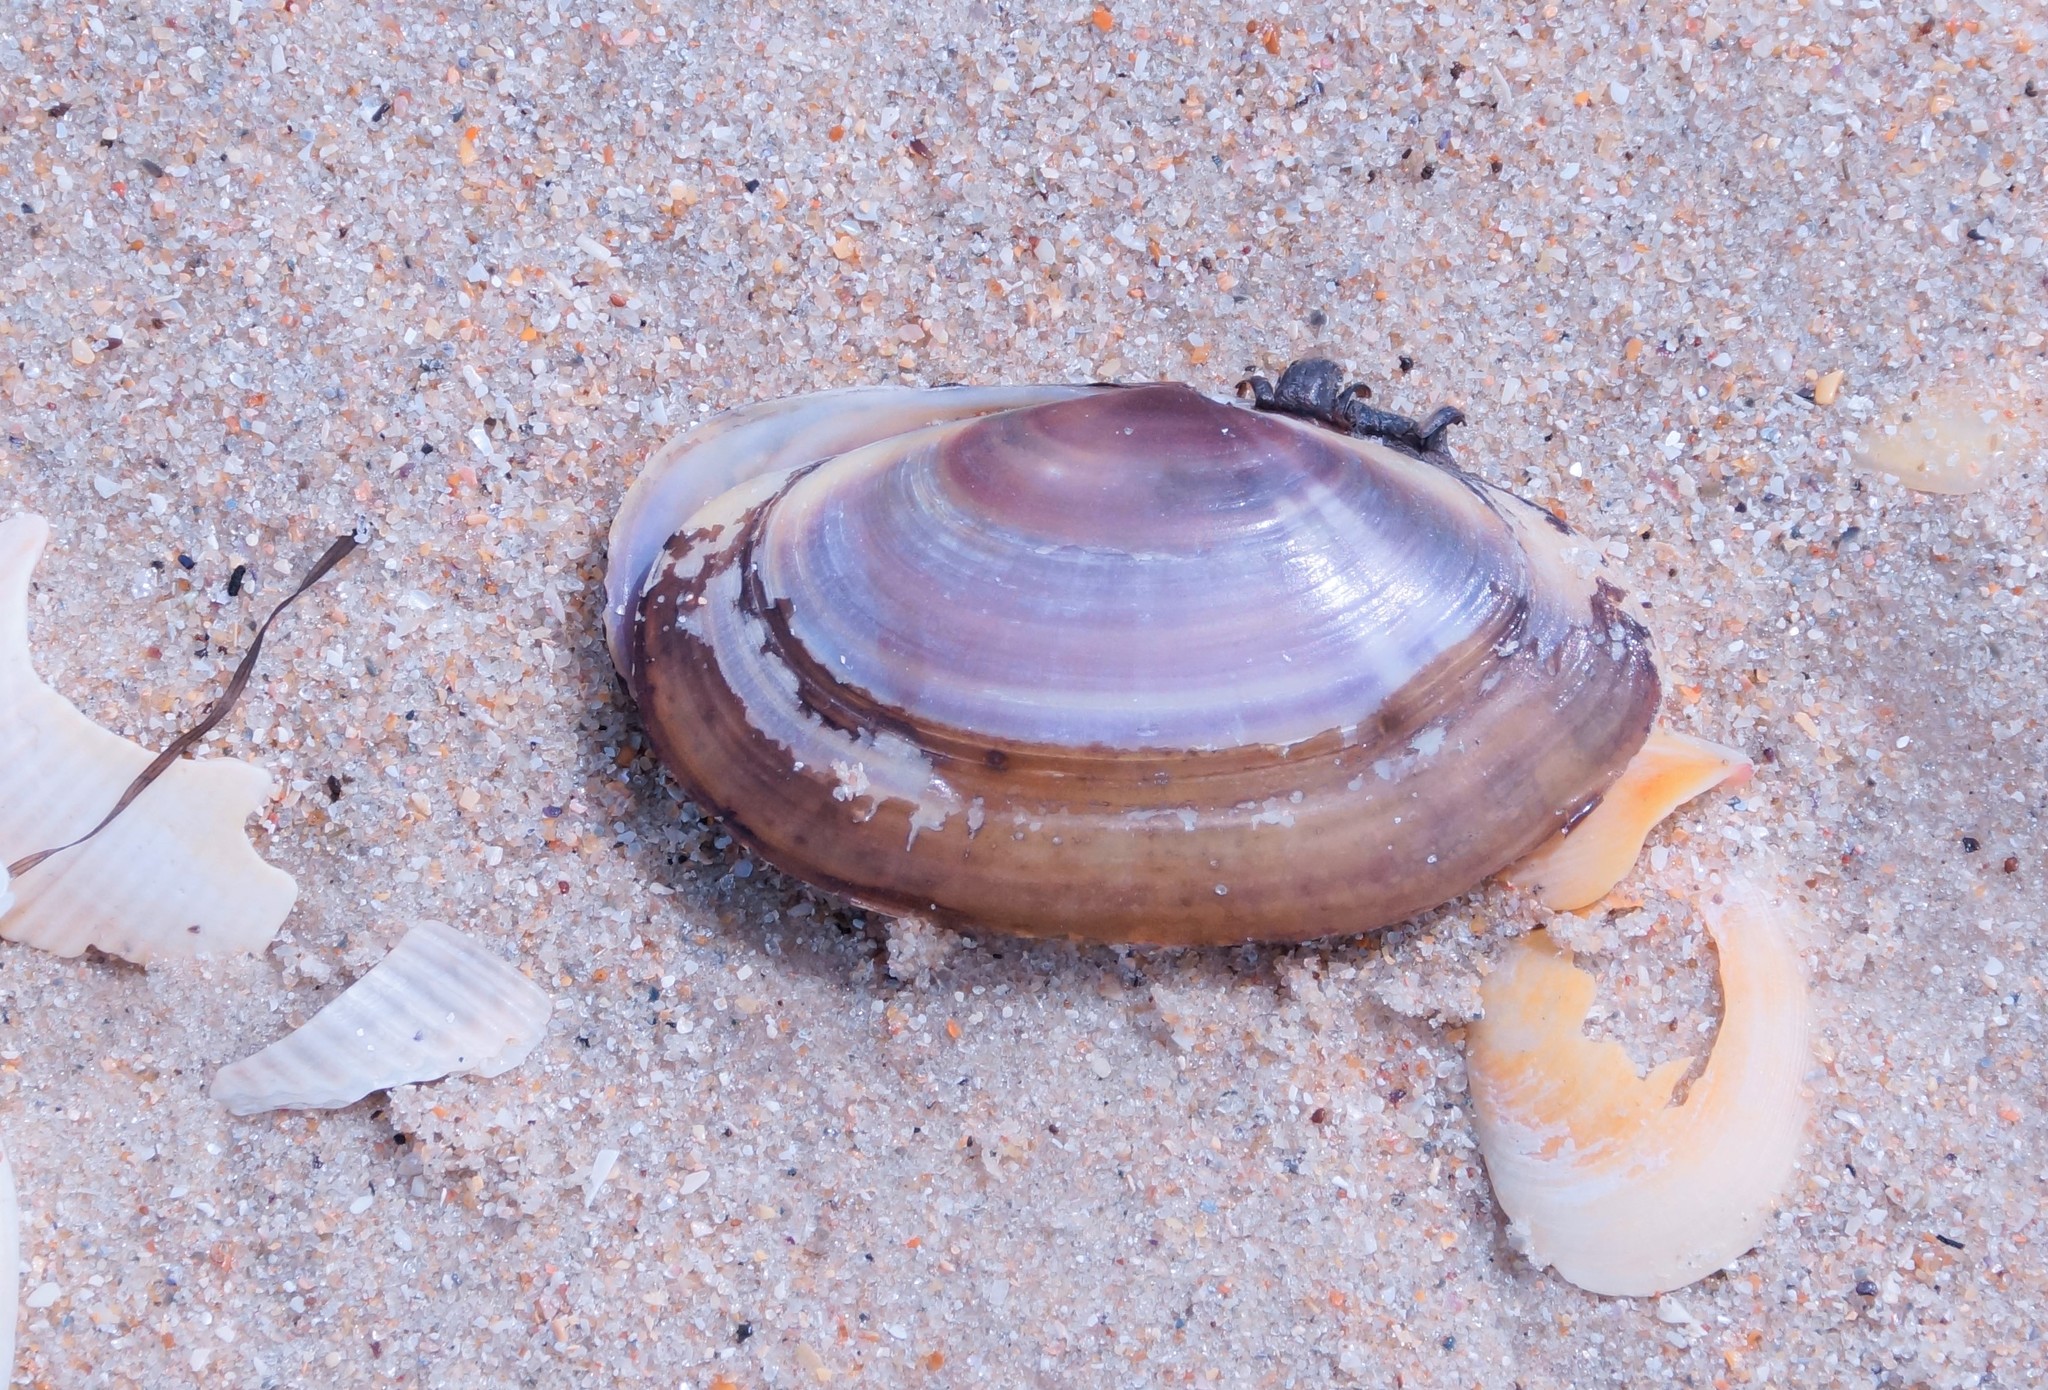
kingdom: Animalia
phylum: Mollusca
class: Bivalvia
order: Cardiida
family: Psammobiidae
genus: Hiatula
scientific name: Hiatula biradiata
